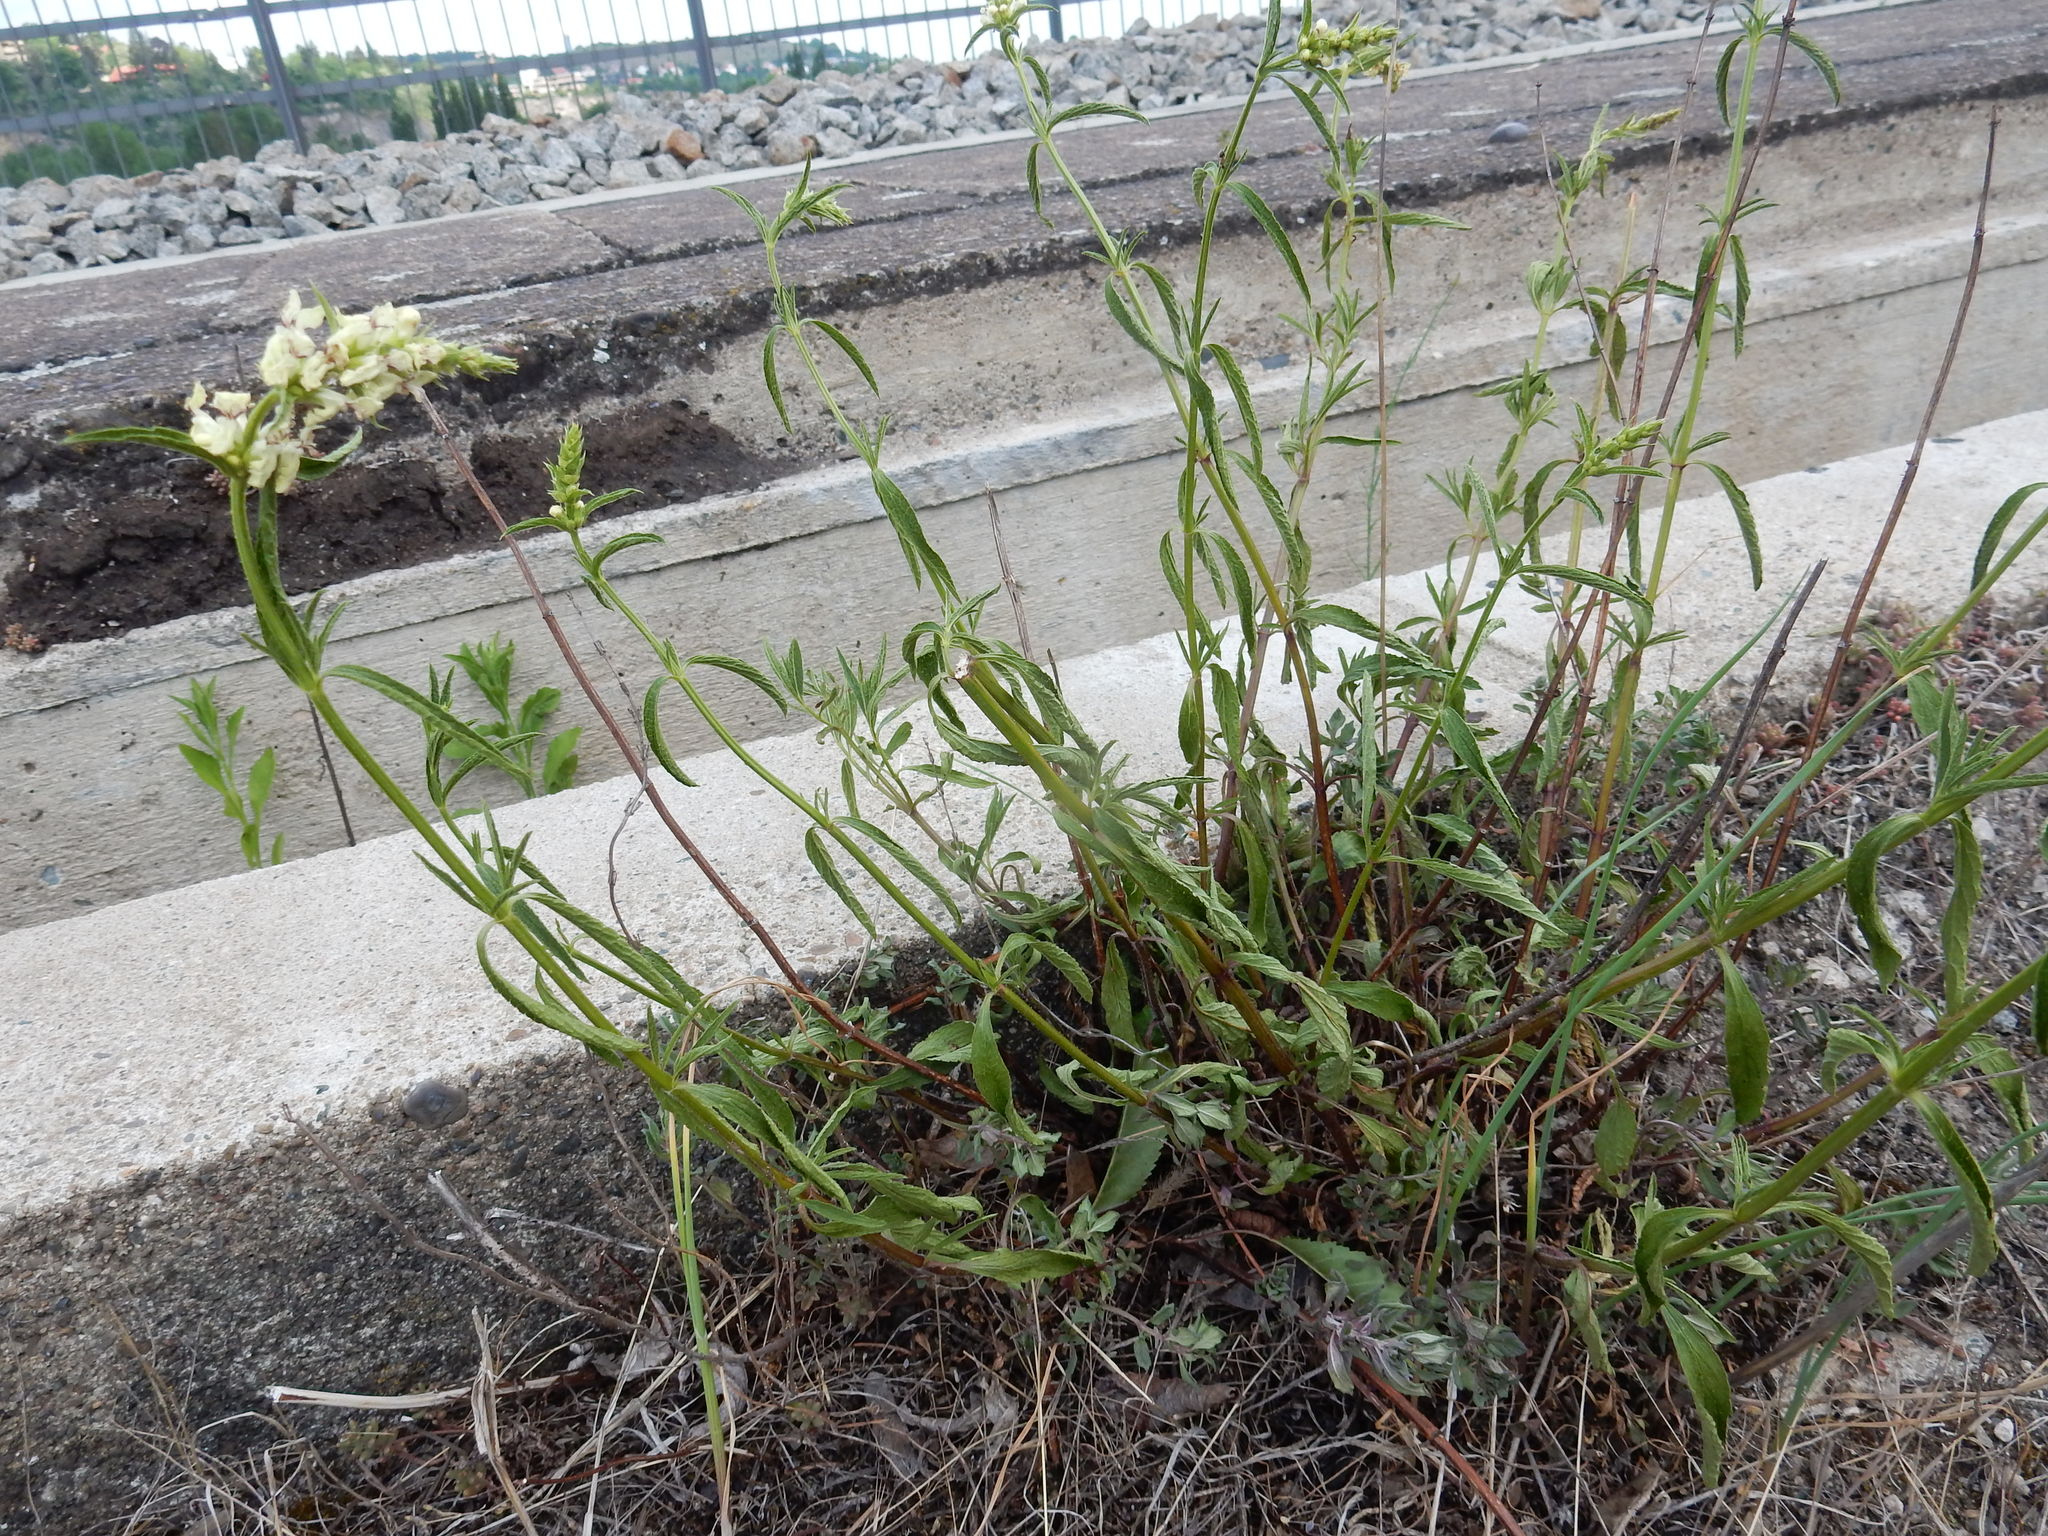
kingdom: Plantae
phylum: Tracheophyta
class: Magnoliopsida
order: Lamiales
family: Lamiaceae
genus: Stachys
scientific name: Stachys recta
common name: Perennial yellow-woundwort
